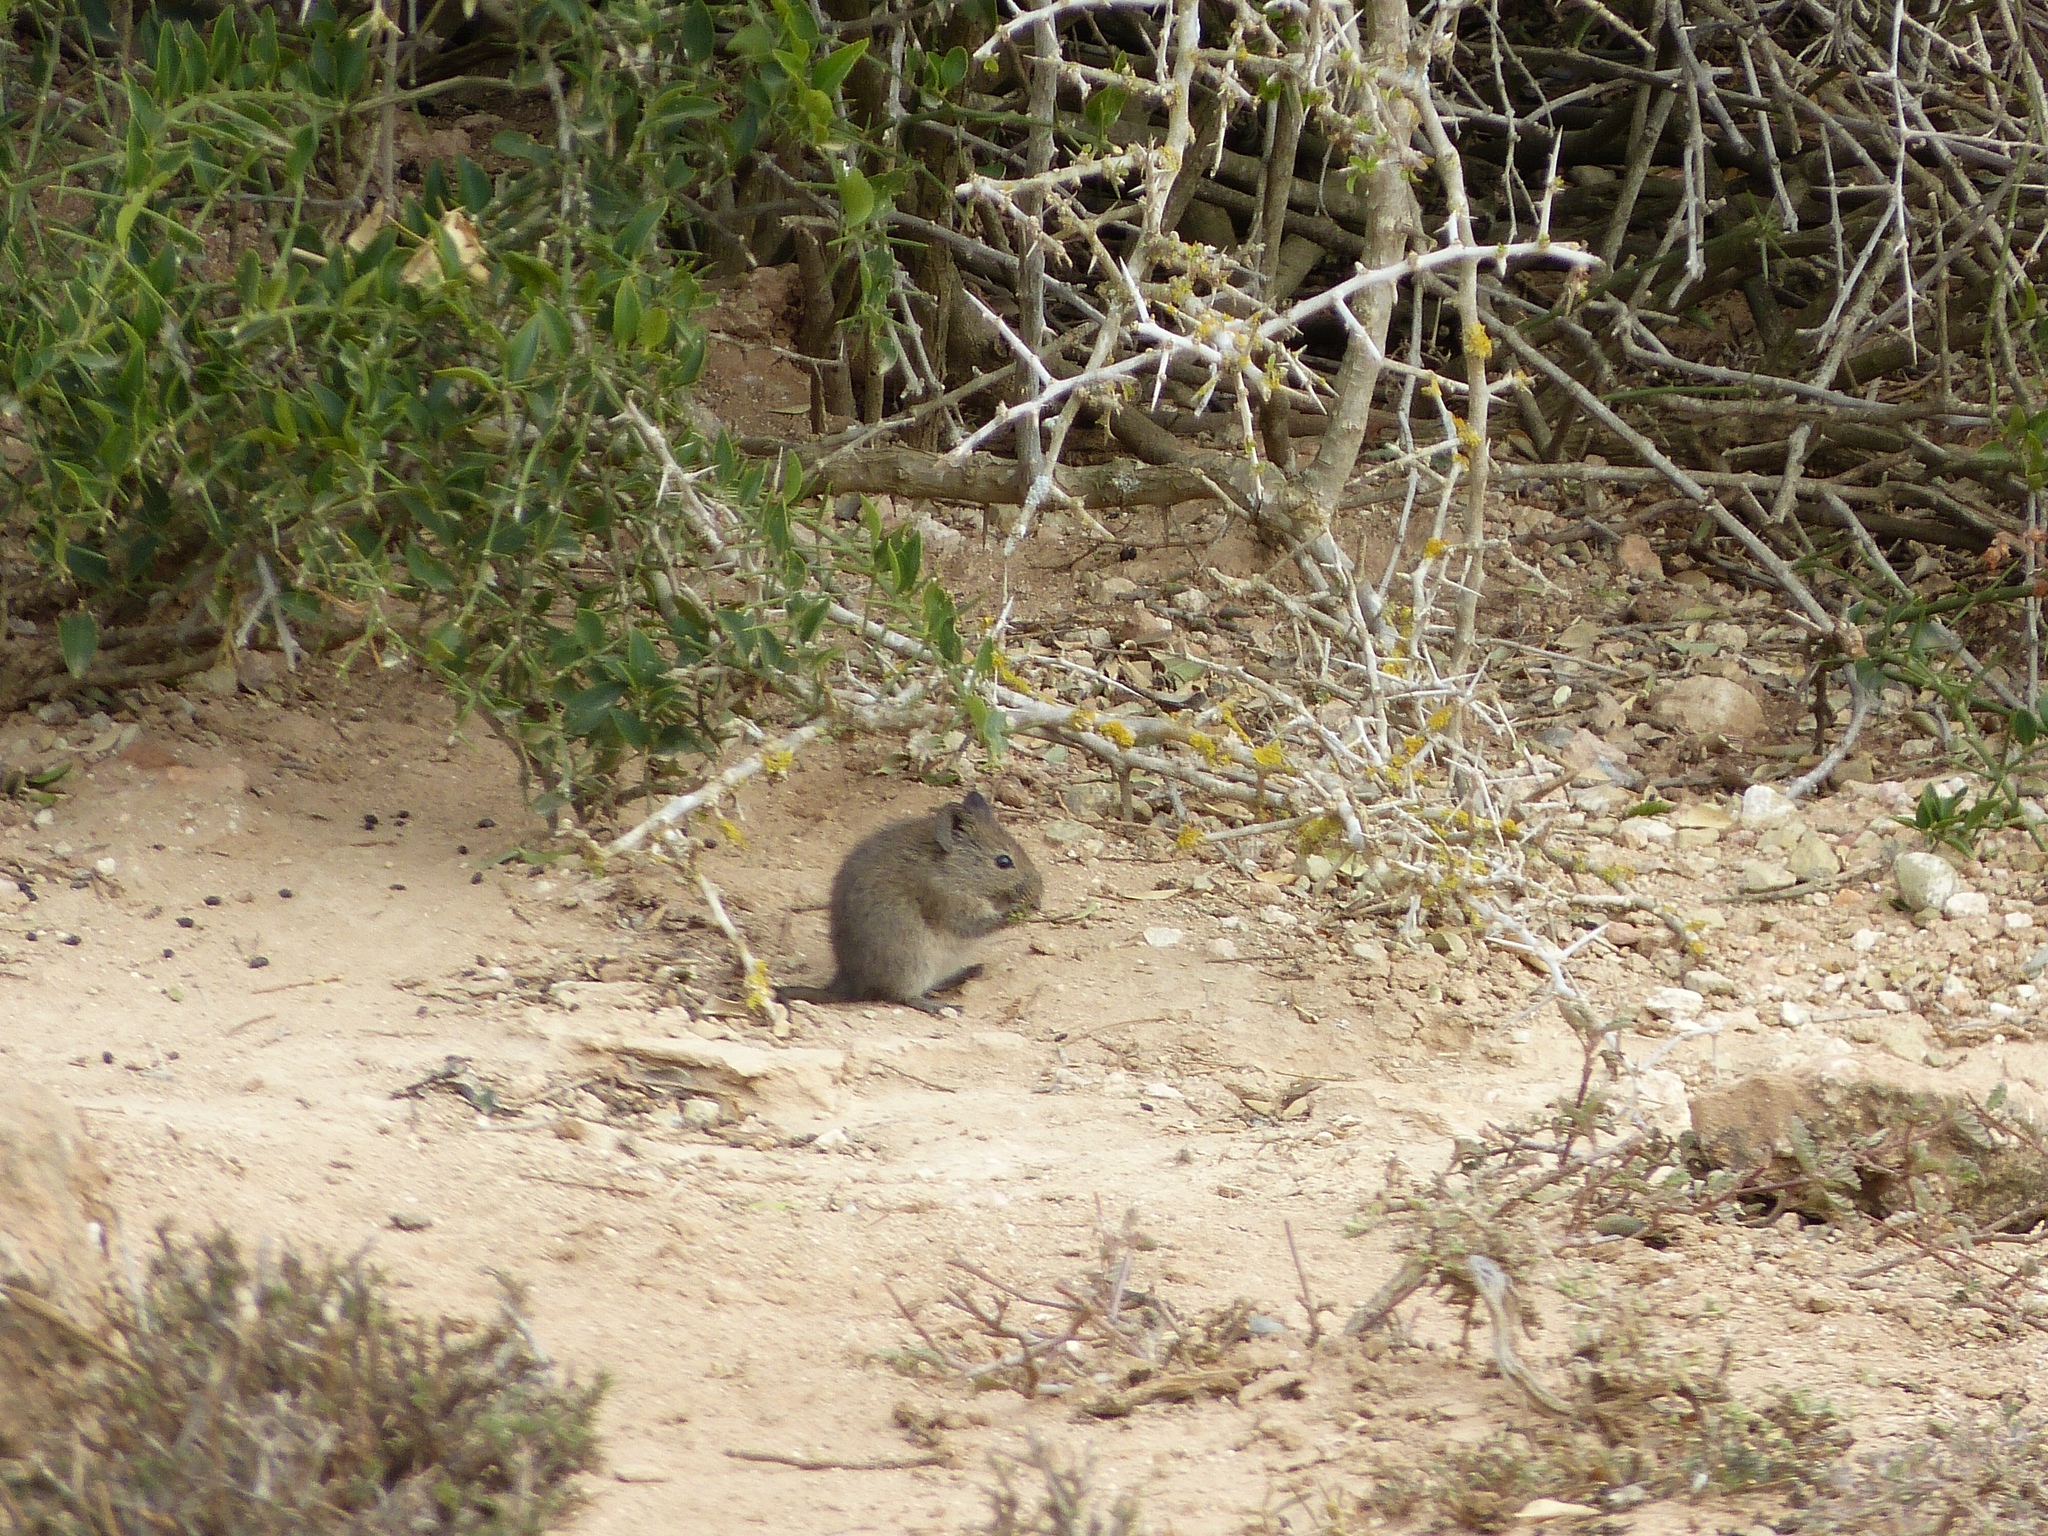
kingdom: Animalia
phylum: Chordata
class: Mammalia
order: Rodentia
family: Muridae
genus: Myotomys
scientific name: Myotomys unisulcatus
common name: Bush karroo rat
